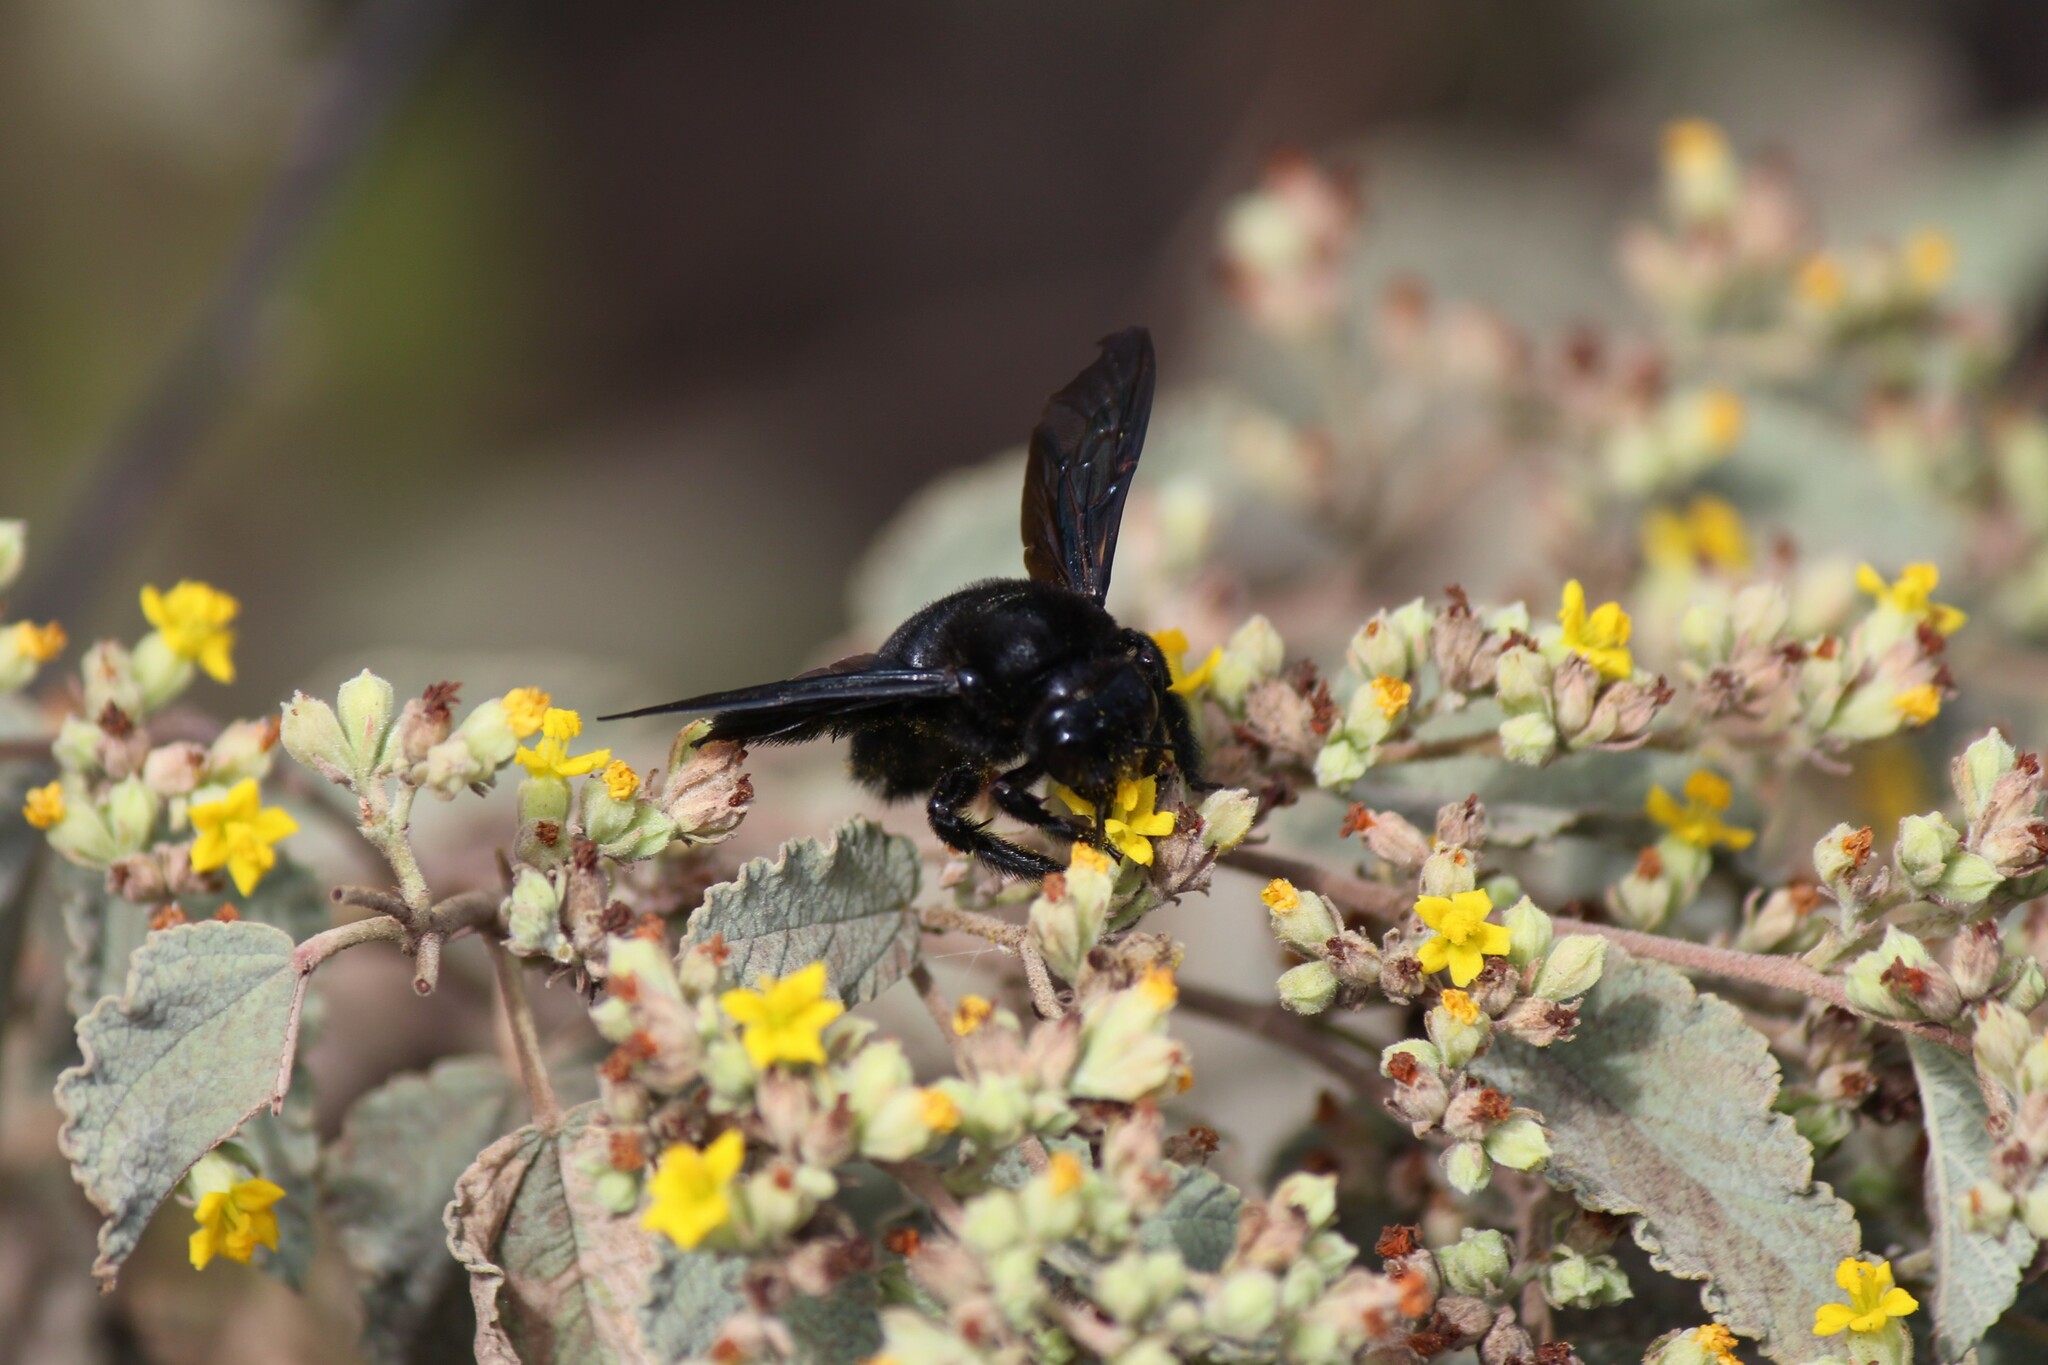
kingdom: Animalia
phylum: Arthropoda
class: Insecta
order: Hymenoptera
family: Apidae
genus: Xylocopa
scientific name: Xylocopa darwini
